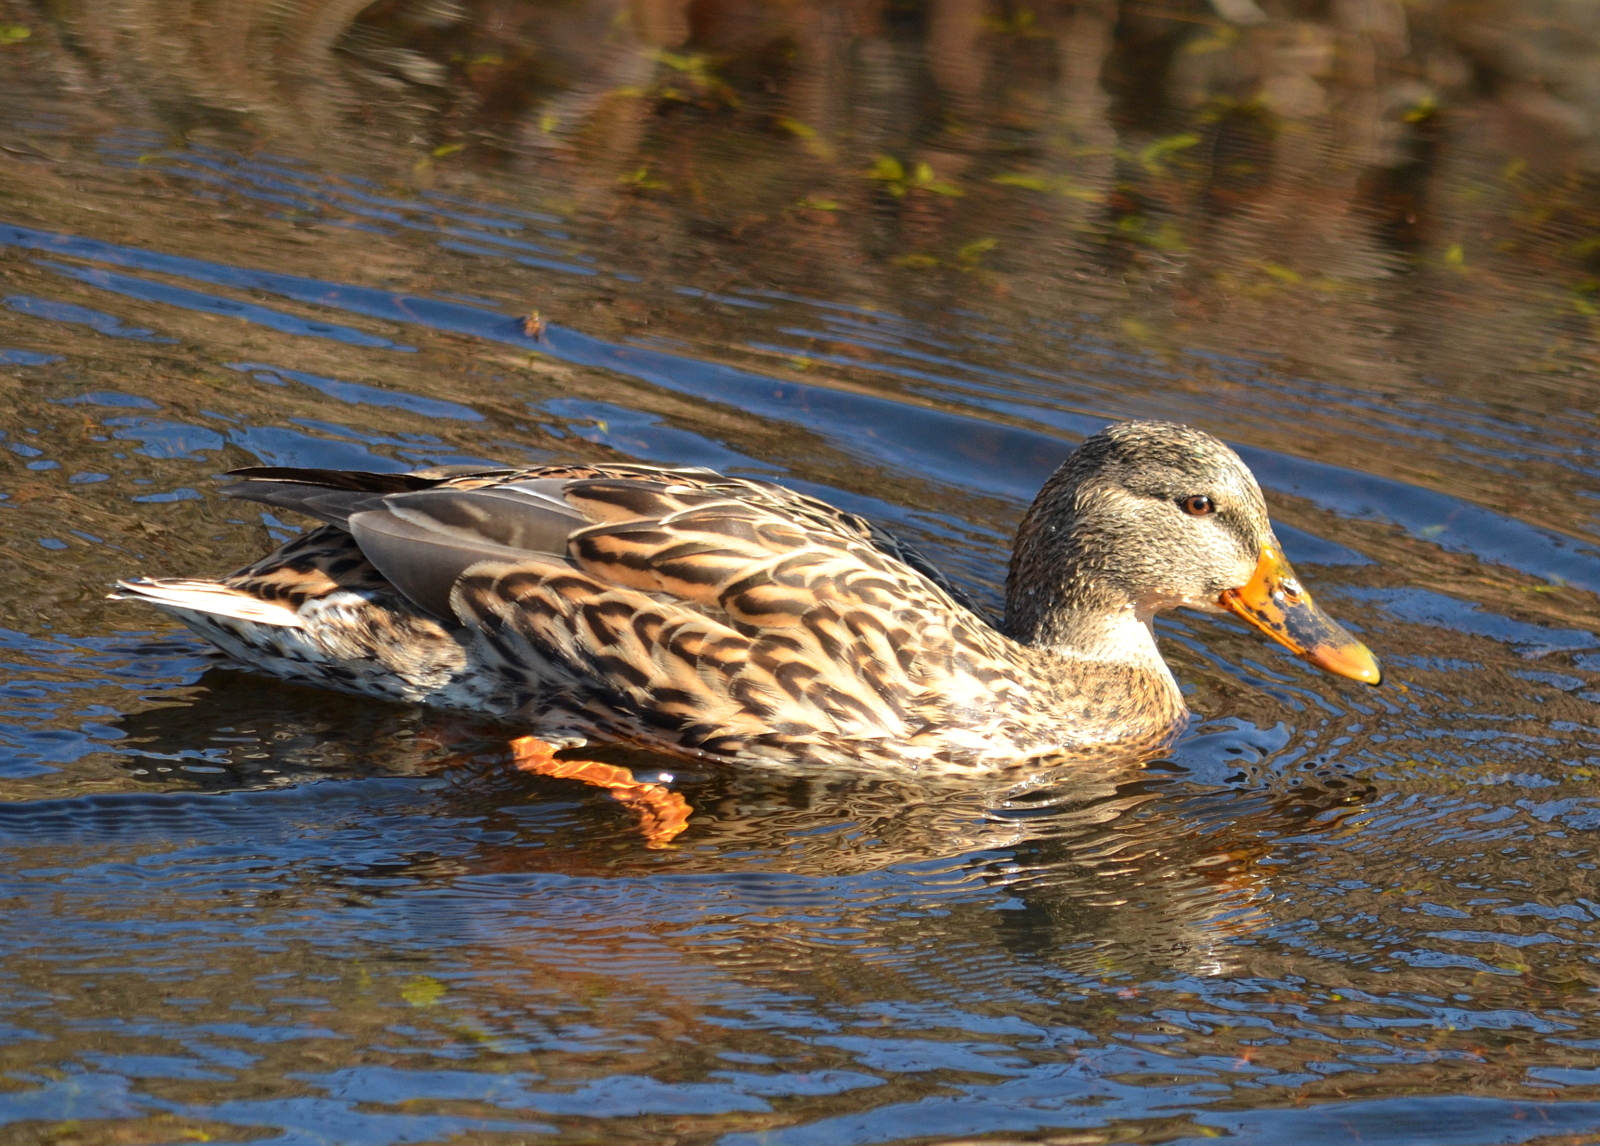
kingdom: Animalia
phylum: Chordata
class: Aves
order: Anseriformes
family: Anatidae
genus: Anas
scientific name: Anas platyrhynchos
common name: Mallard
